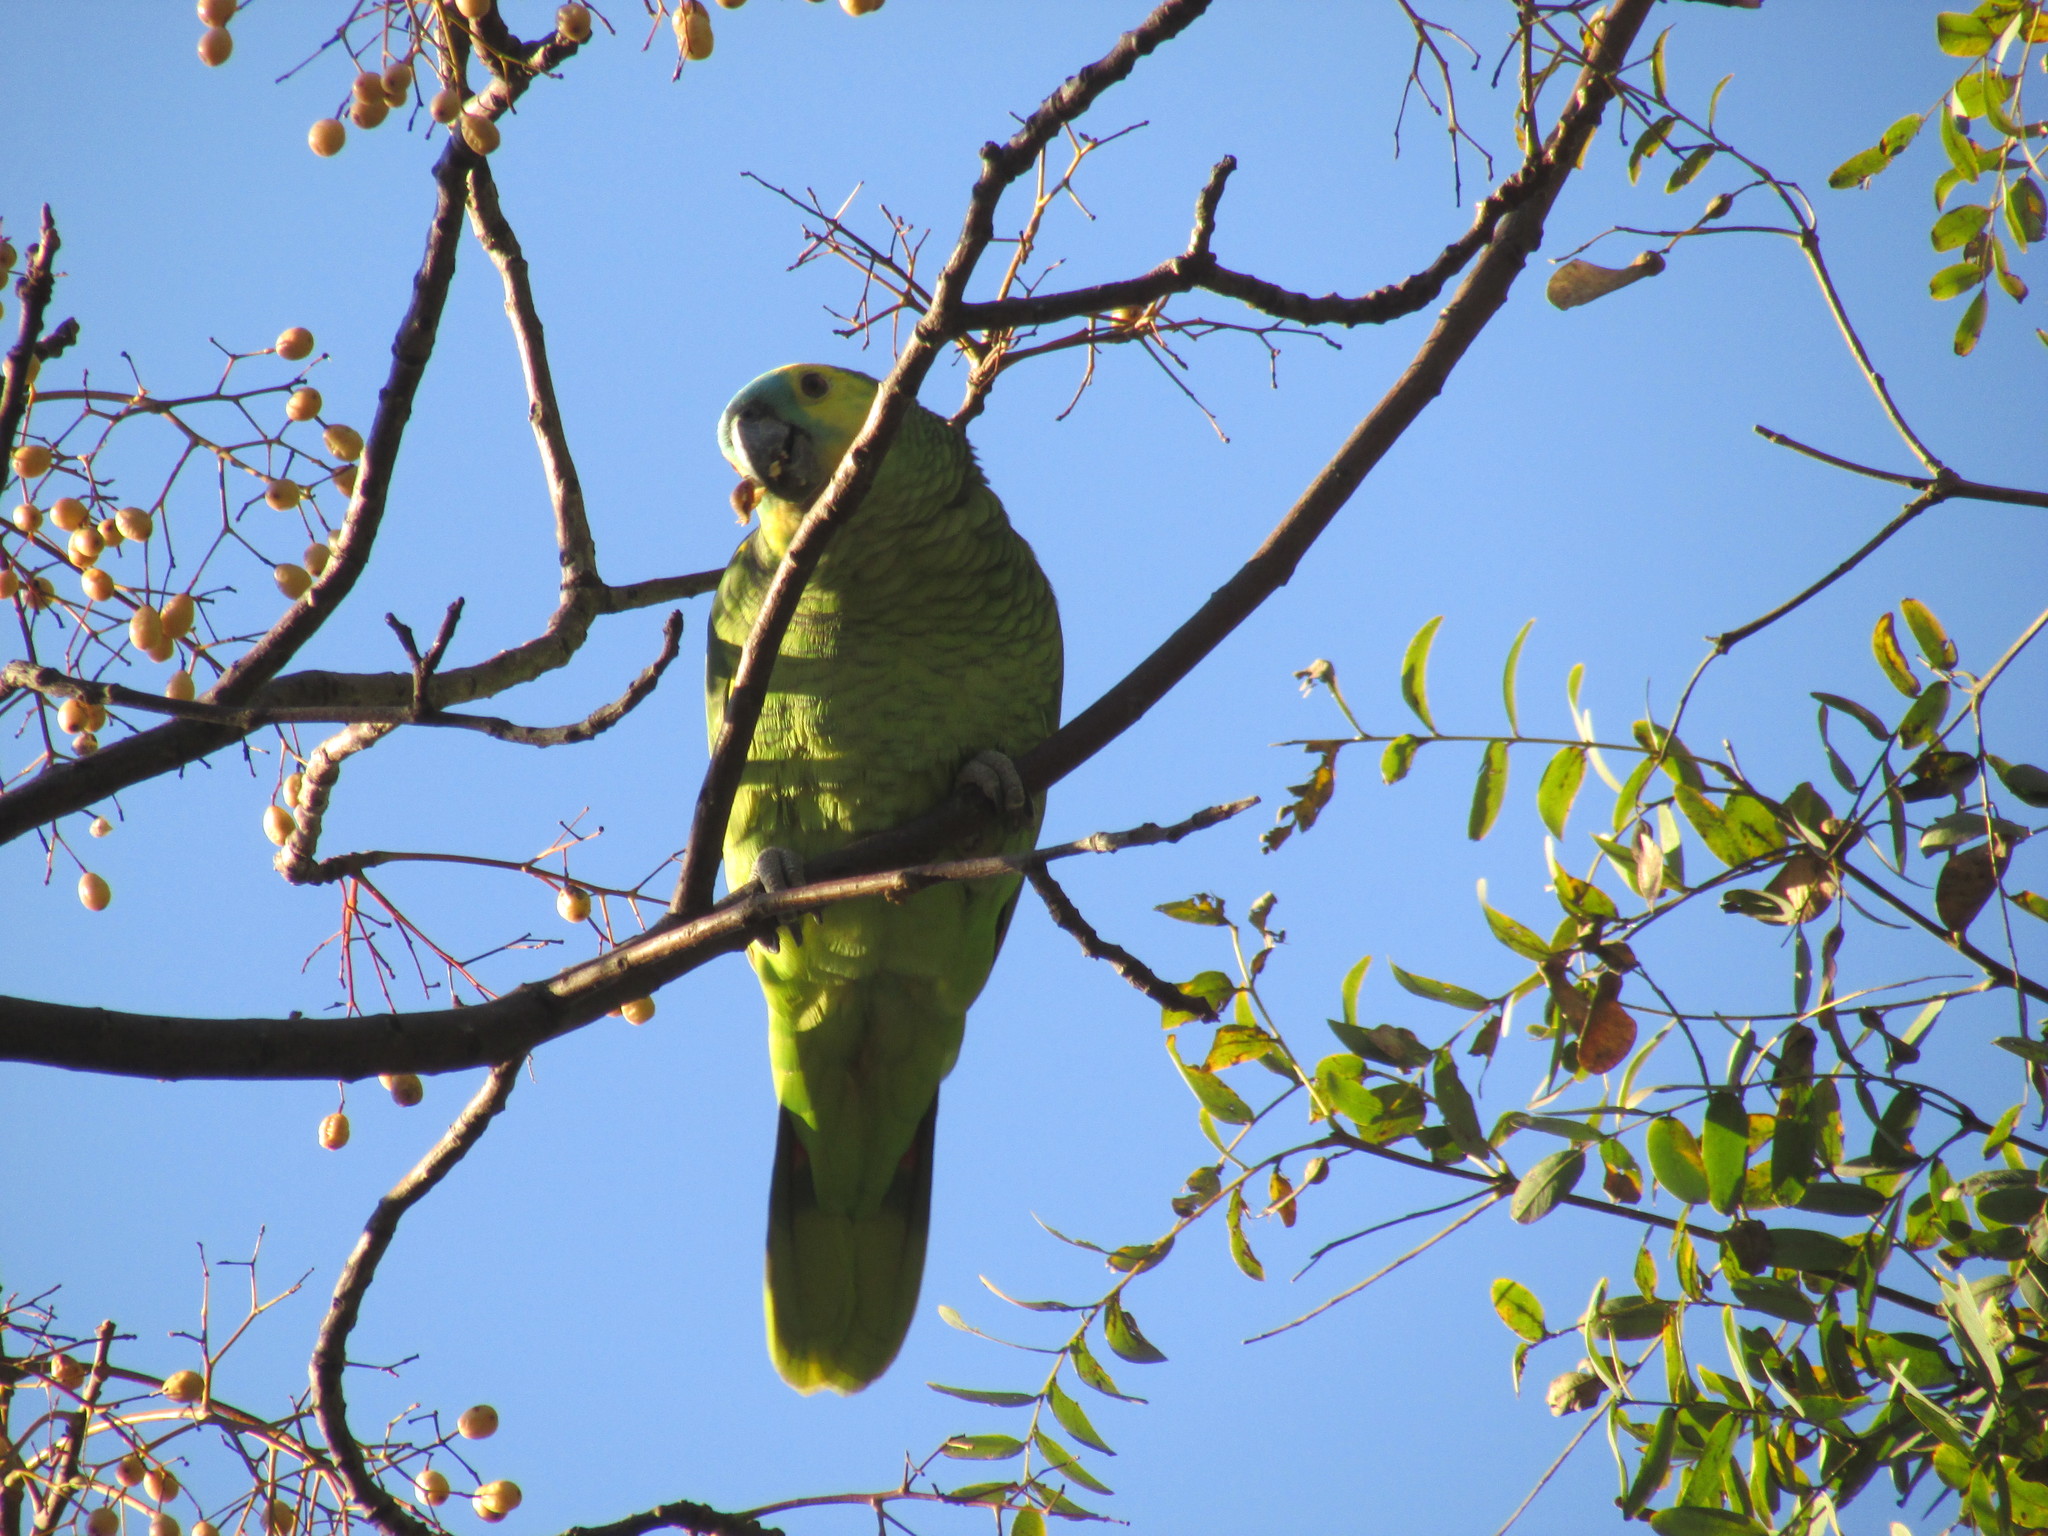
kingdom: Animalia
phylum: Chordata
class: Aves
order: Psittaciformes
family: Psittacidae
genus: Amazona
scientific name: Amazona aestiva
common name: Turquoise-fronted amazon
